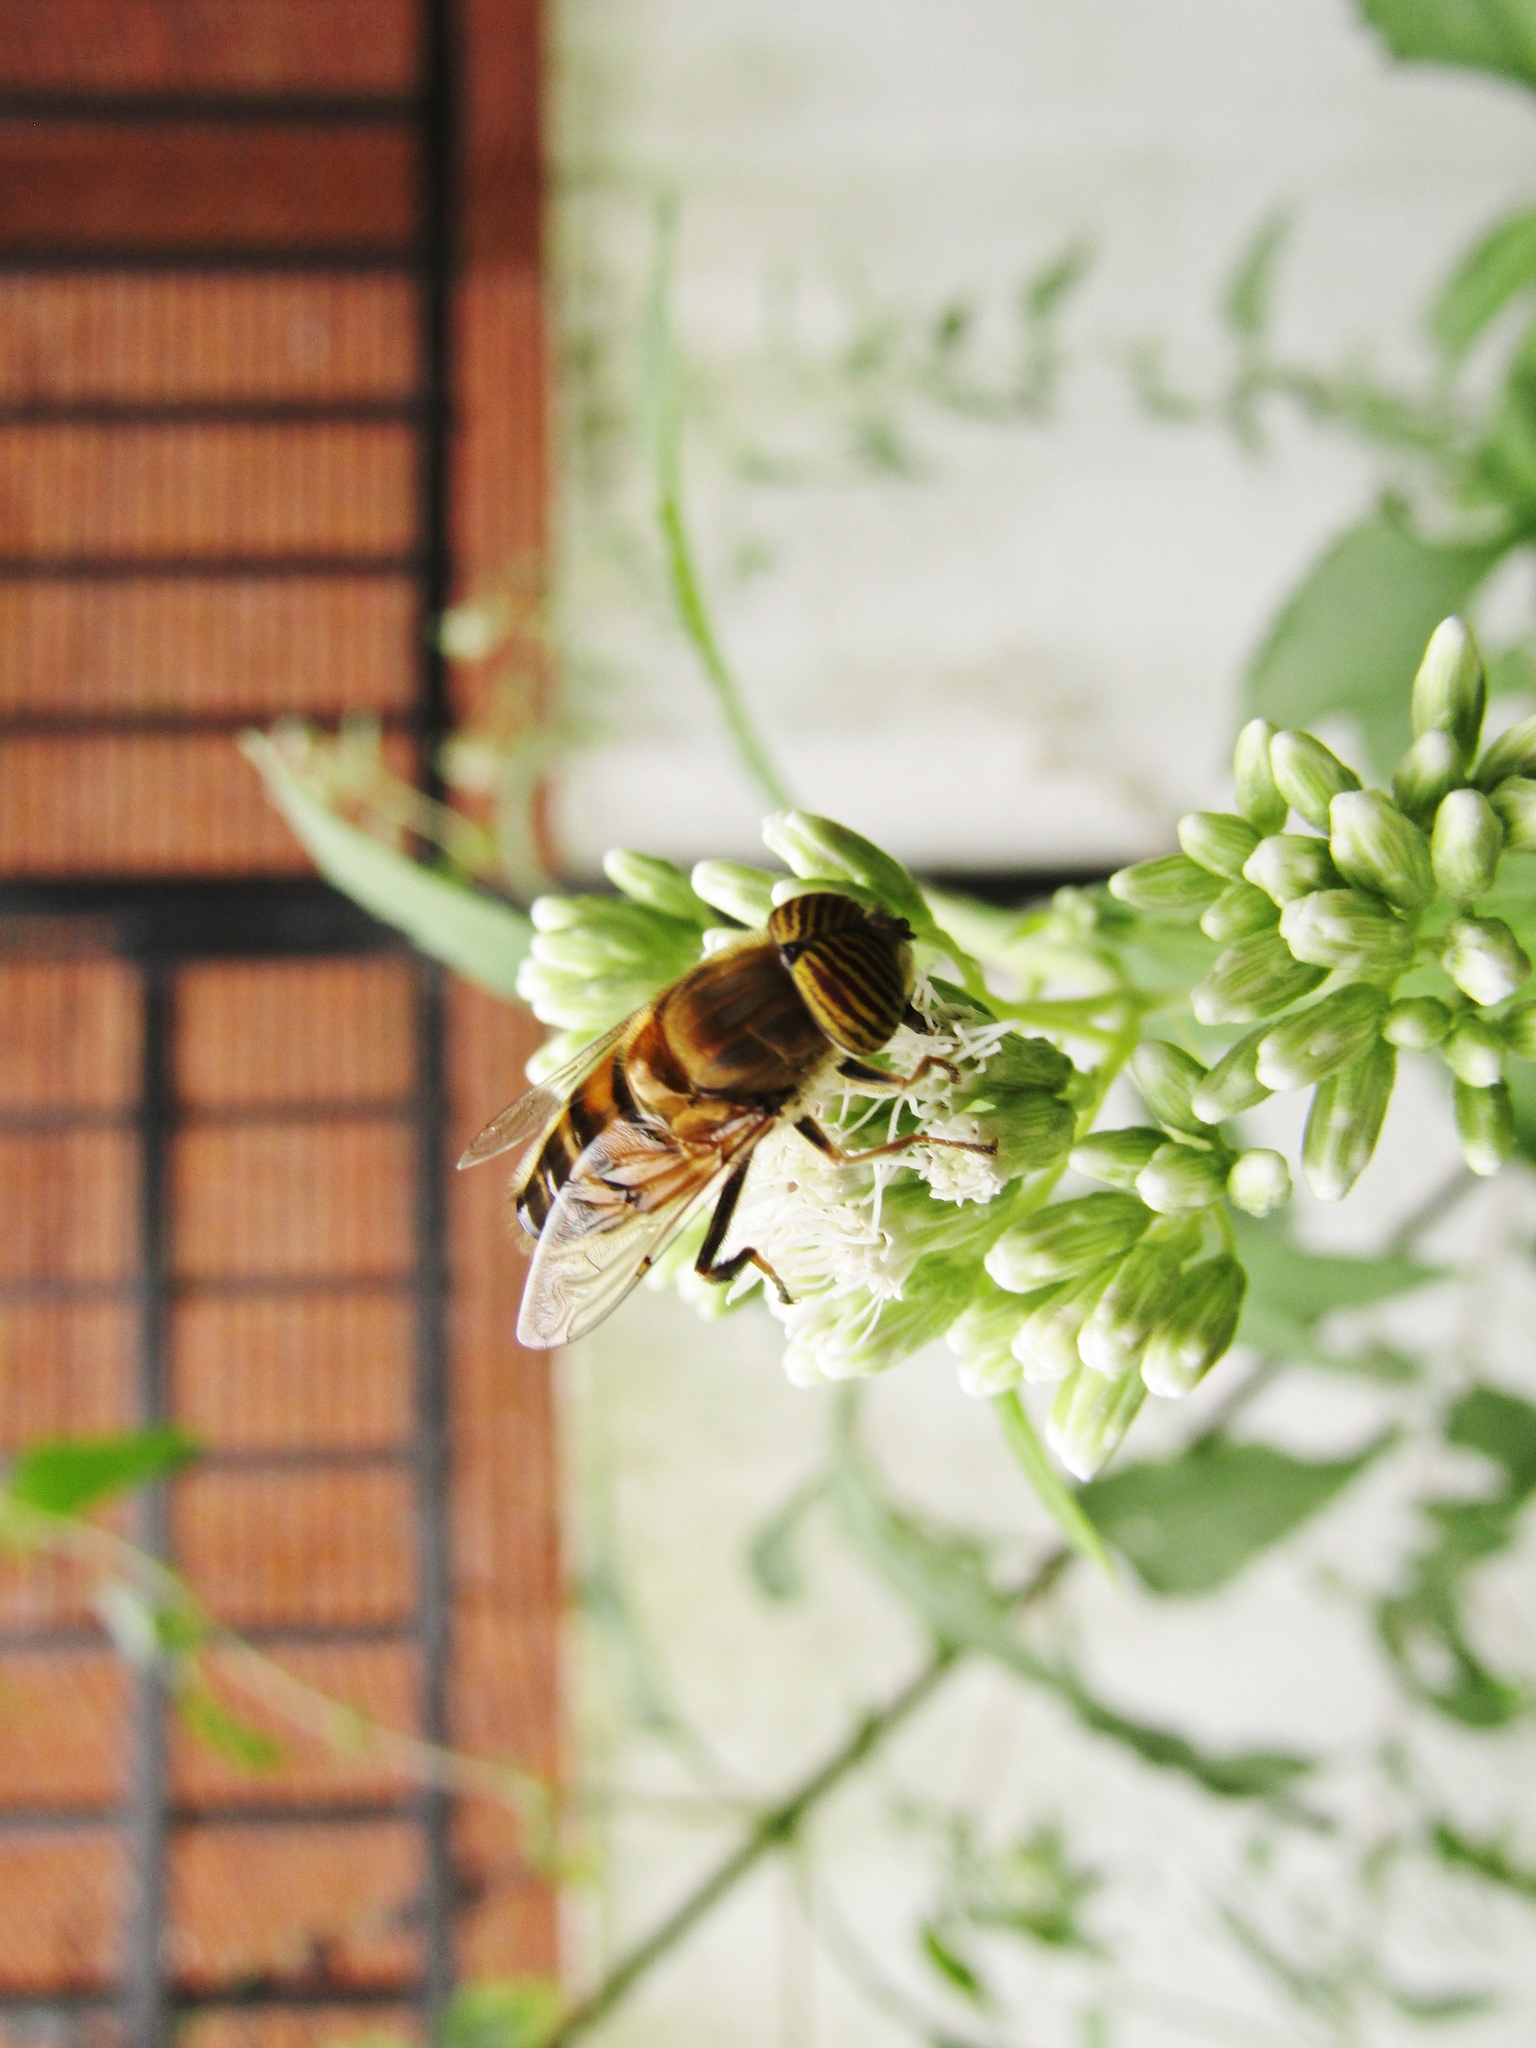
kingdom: Animalia
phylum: Arthropoda
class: Insecta
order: Diptera
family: Syrphidae
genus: Eristalinus
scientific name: Eristalinus taeniops
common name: Syrphid fly
